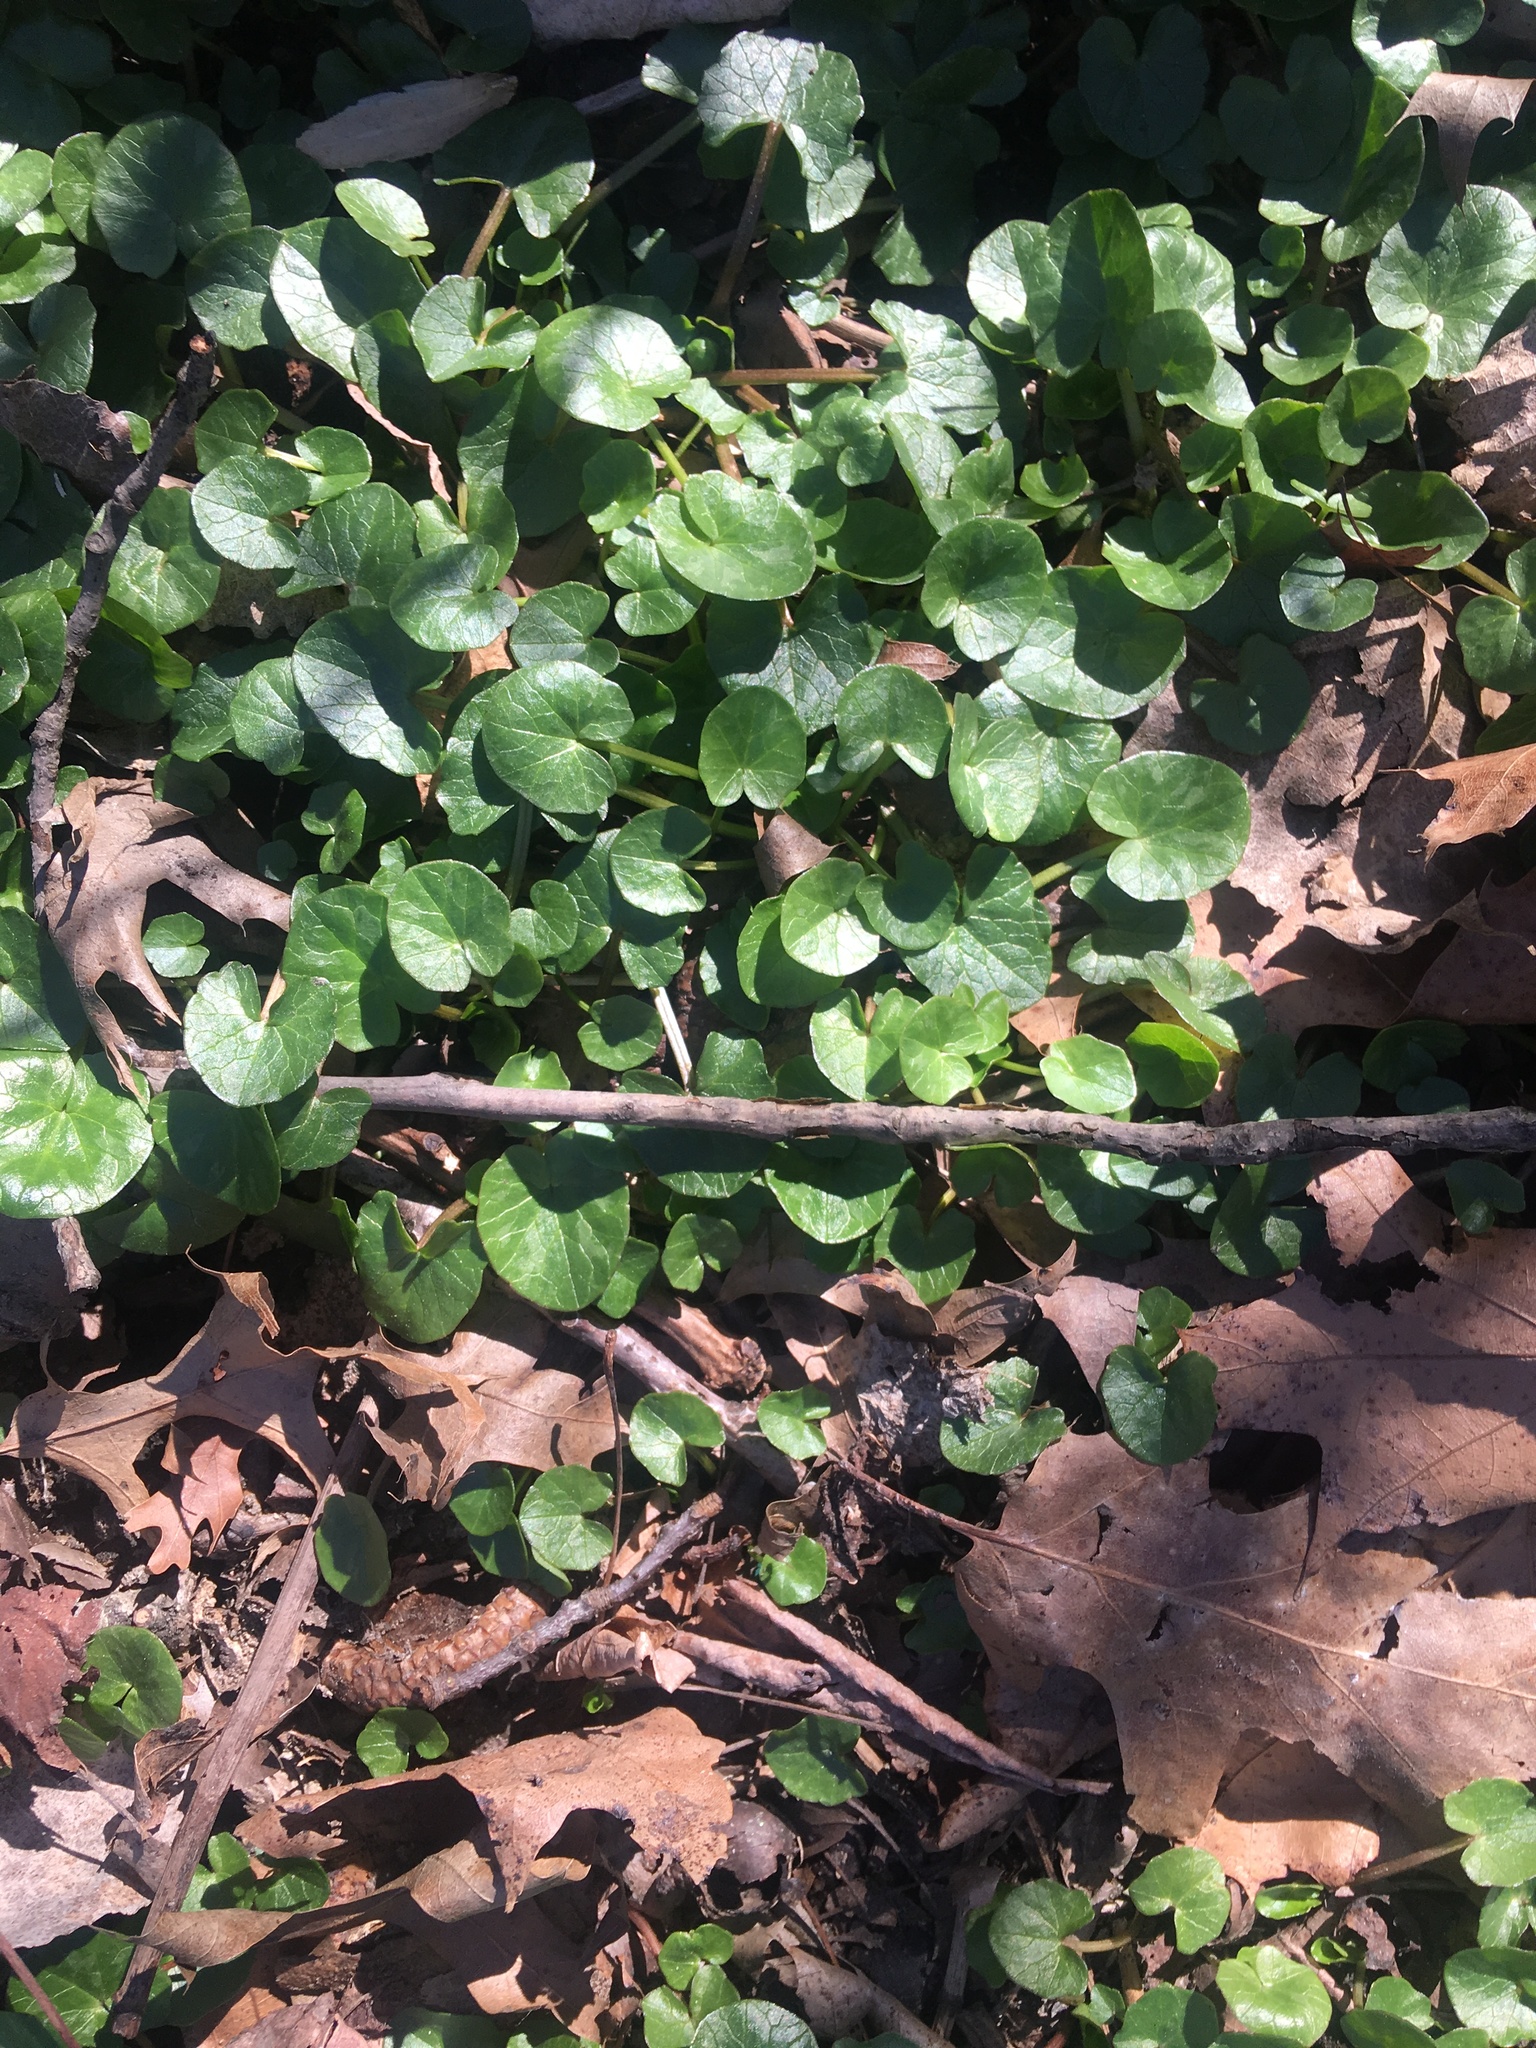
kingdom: Plantae
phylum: Tracheophyta
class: Magnoliopsida
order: Ranunculales
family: Ranunculaceae
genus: Ficaria
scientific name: Ficaria verna
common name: Lesser celandine
